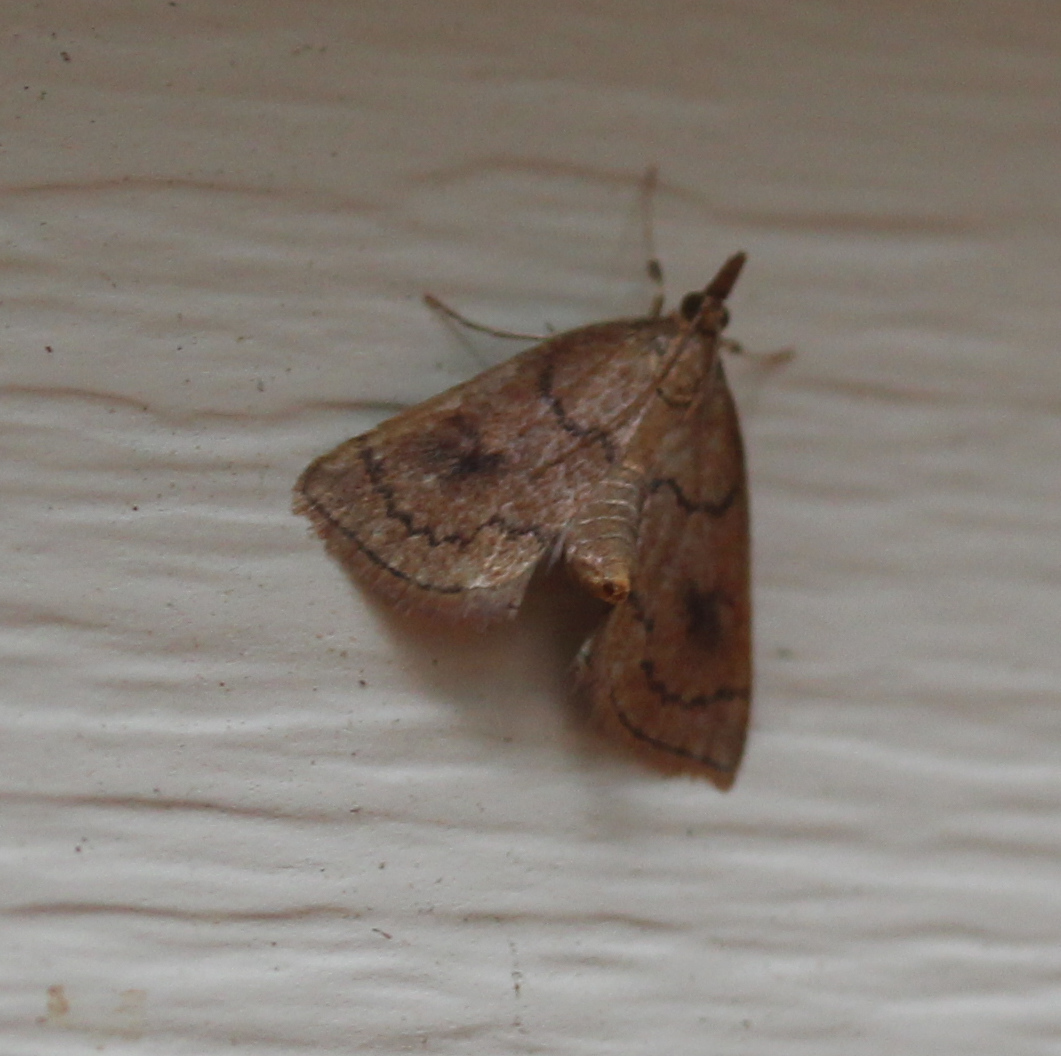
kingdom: Animalia
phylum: Arthropoda
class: Insecta
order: Lepidoptera
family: Crambidae
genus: Fumibotys
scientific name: Fumibotys fumalis
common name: Mint root borer moth
